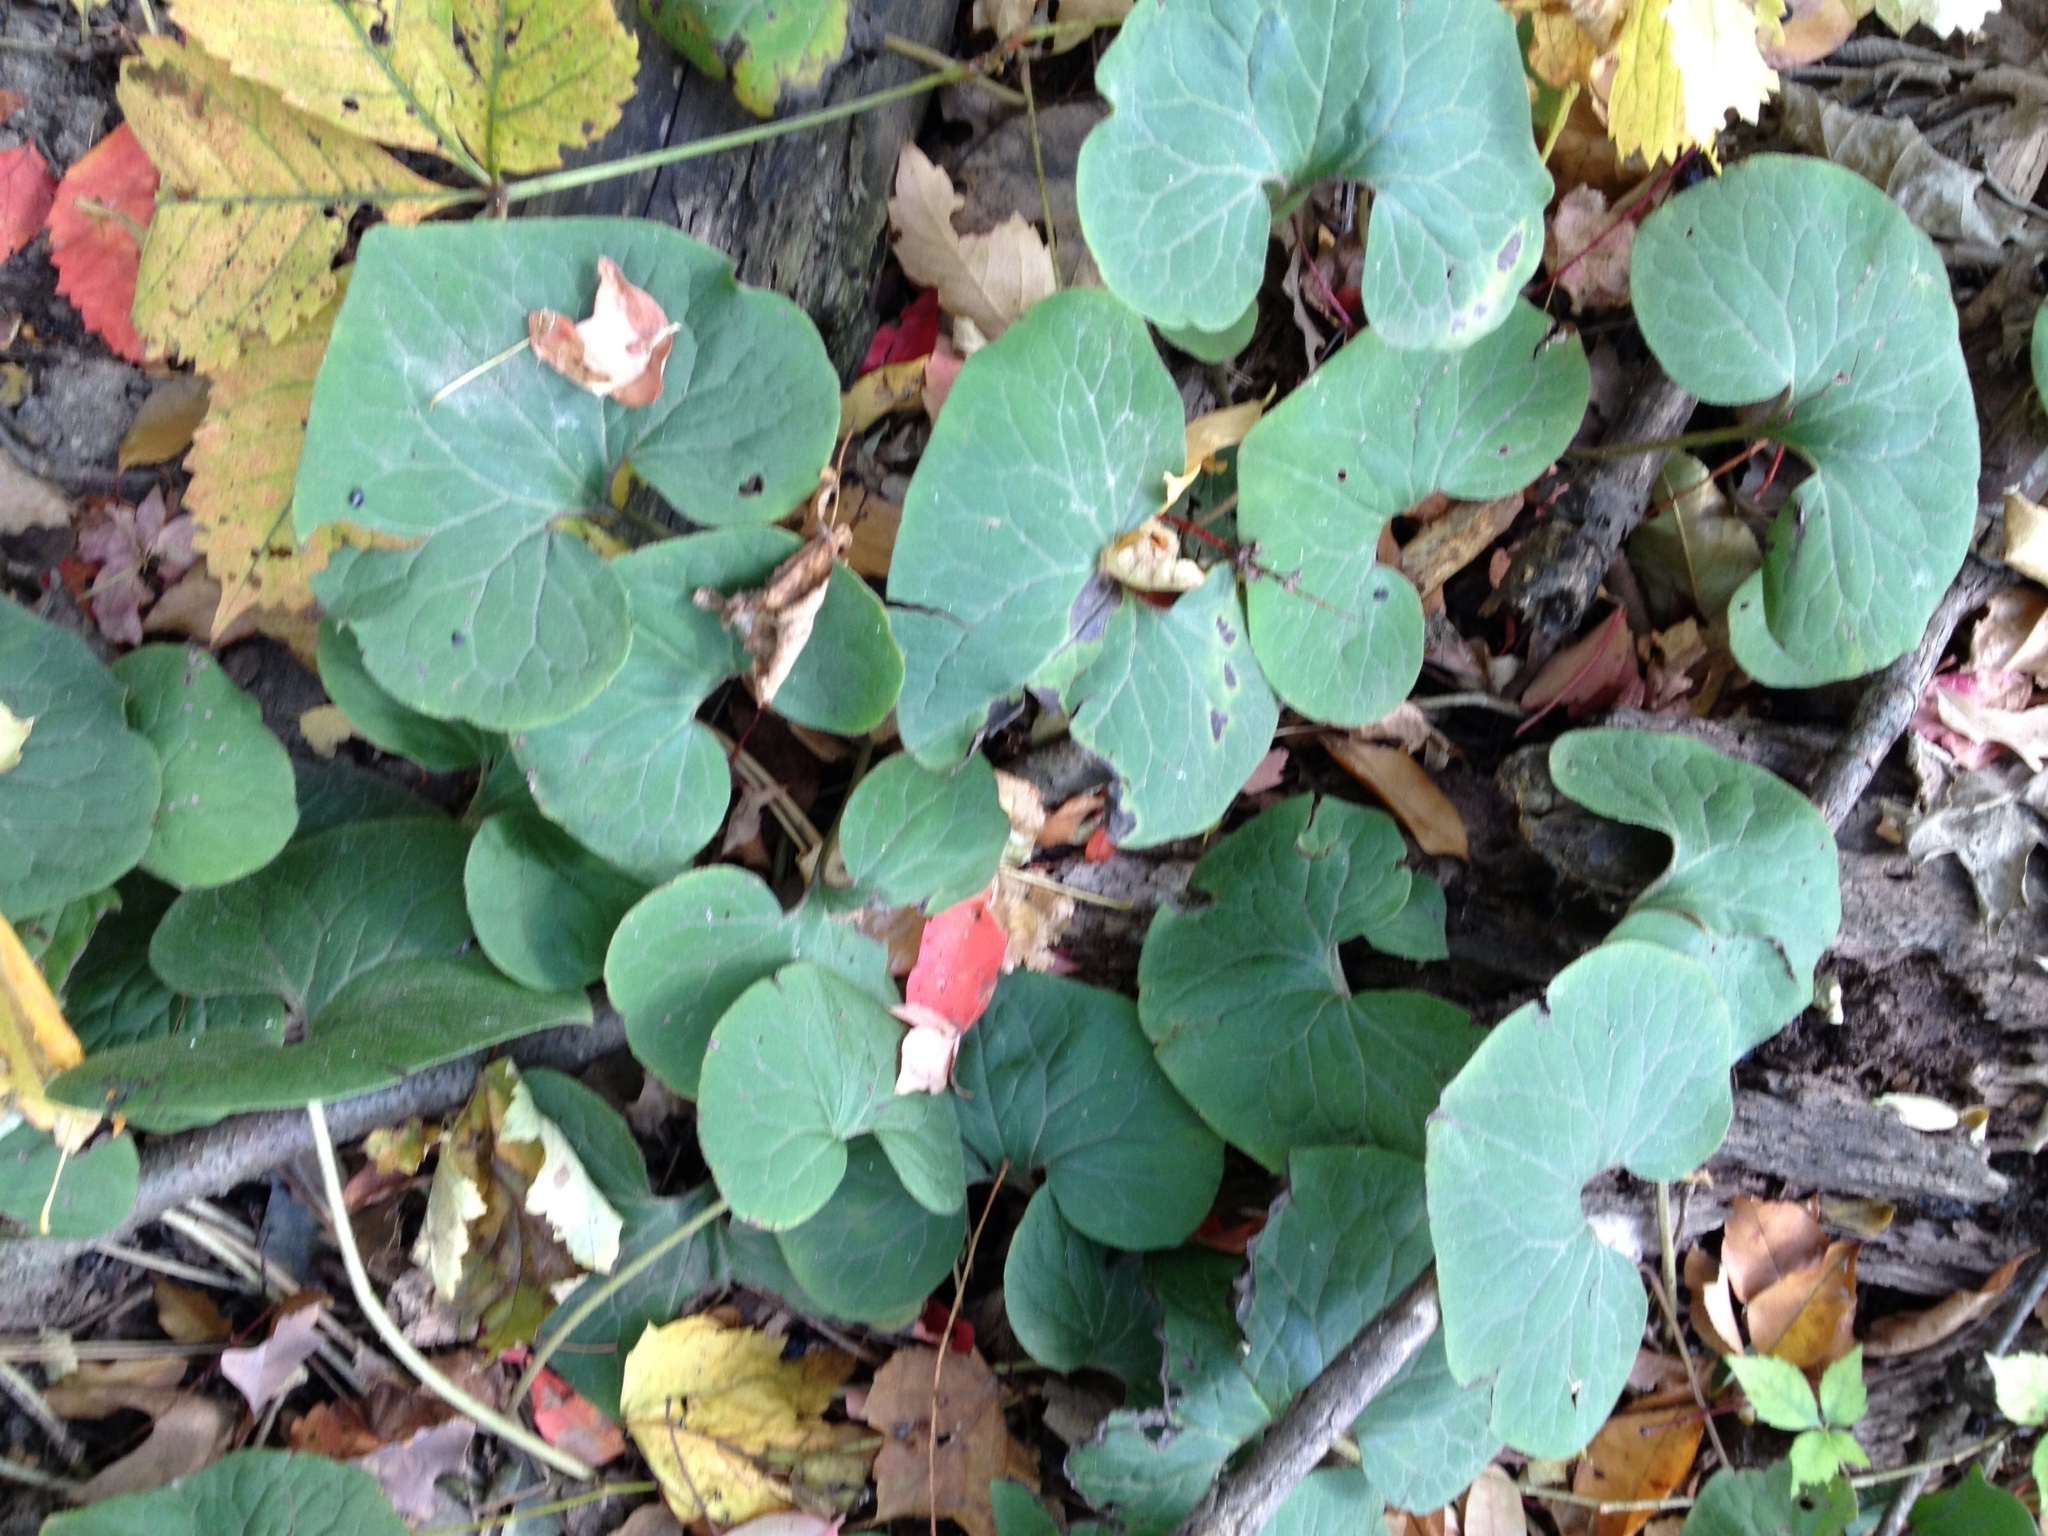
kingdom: Plantae
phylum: Tracheophyta
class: Magnoliopsida
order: Piperales
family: Aristolochiaceae
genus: Asarum
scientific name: Asarum canadense
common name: Wild ginger
